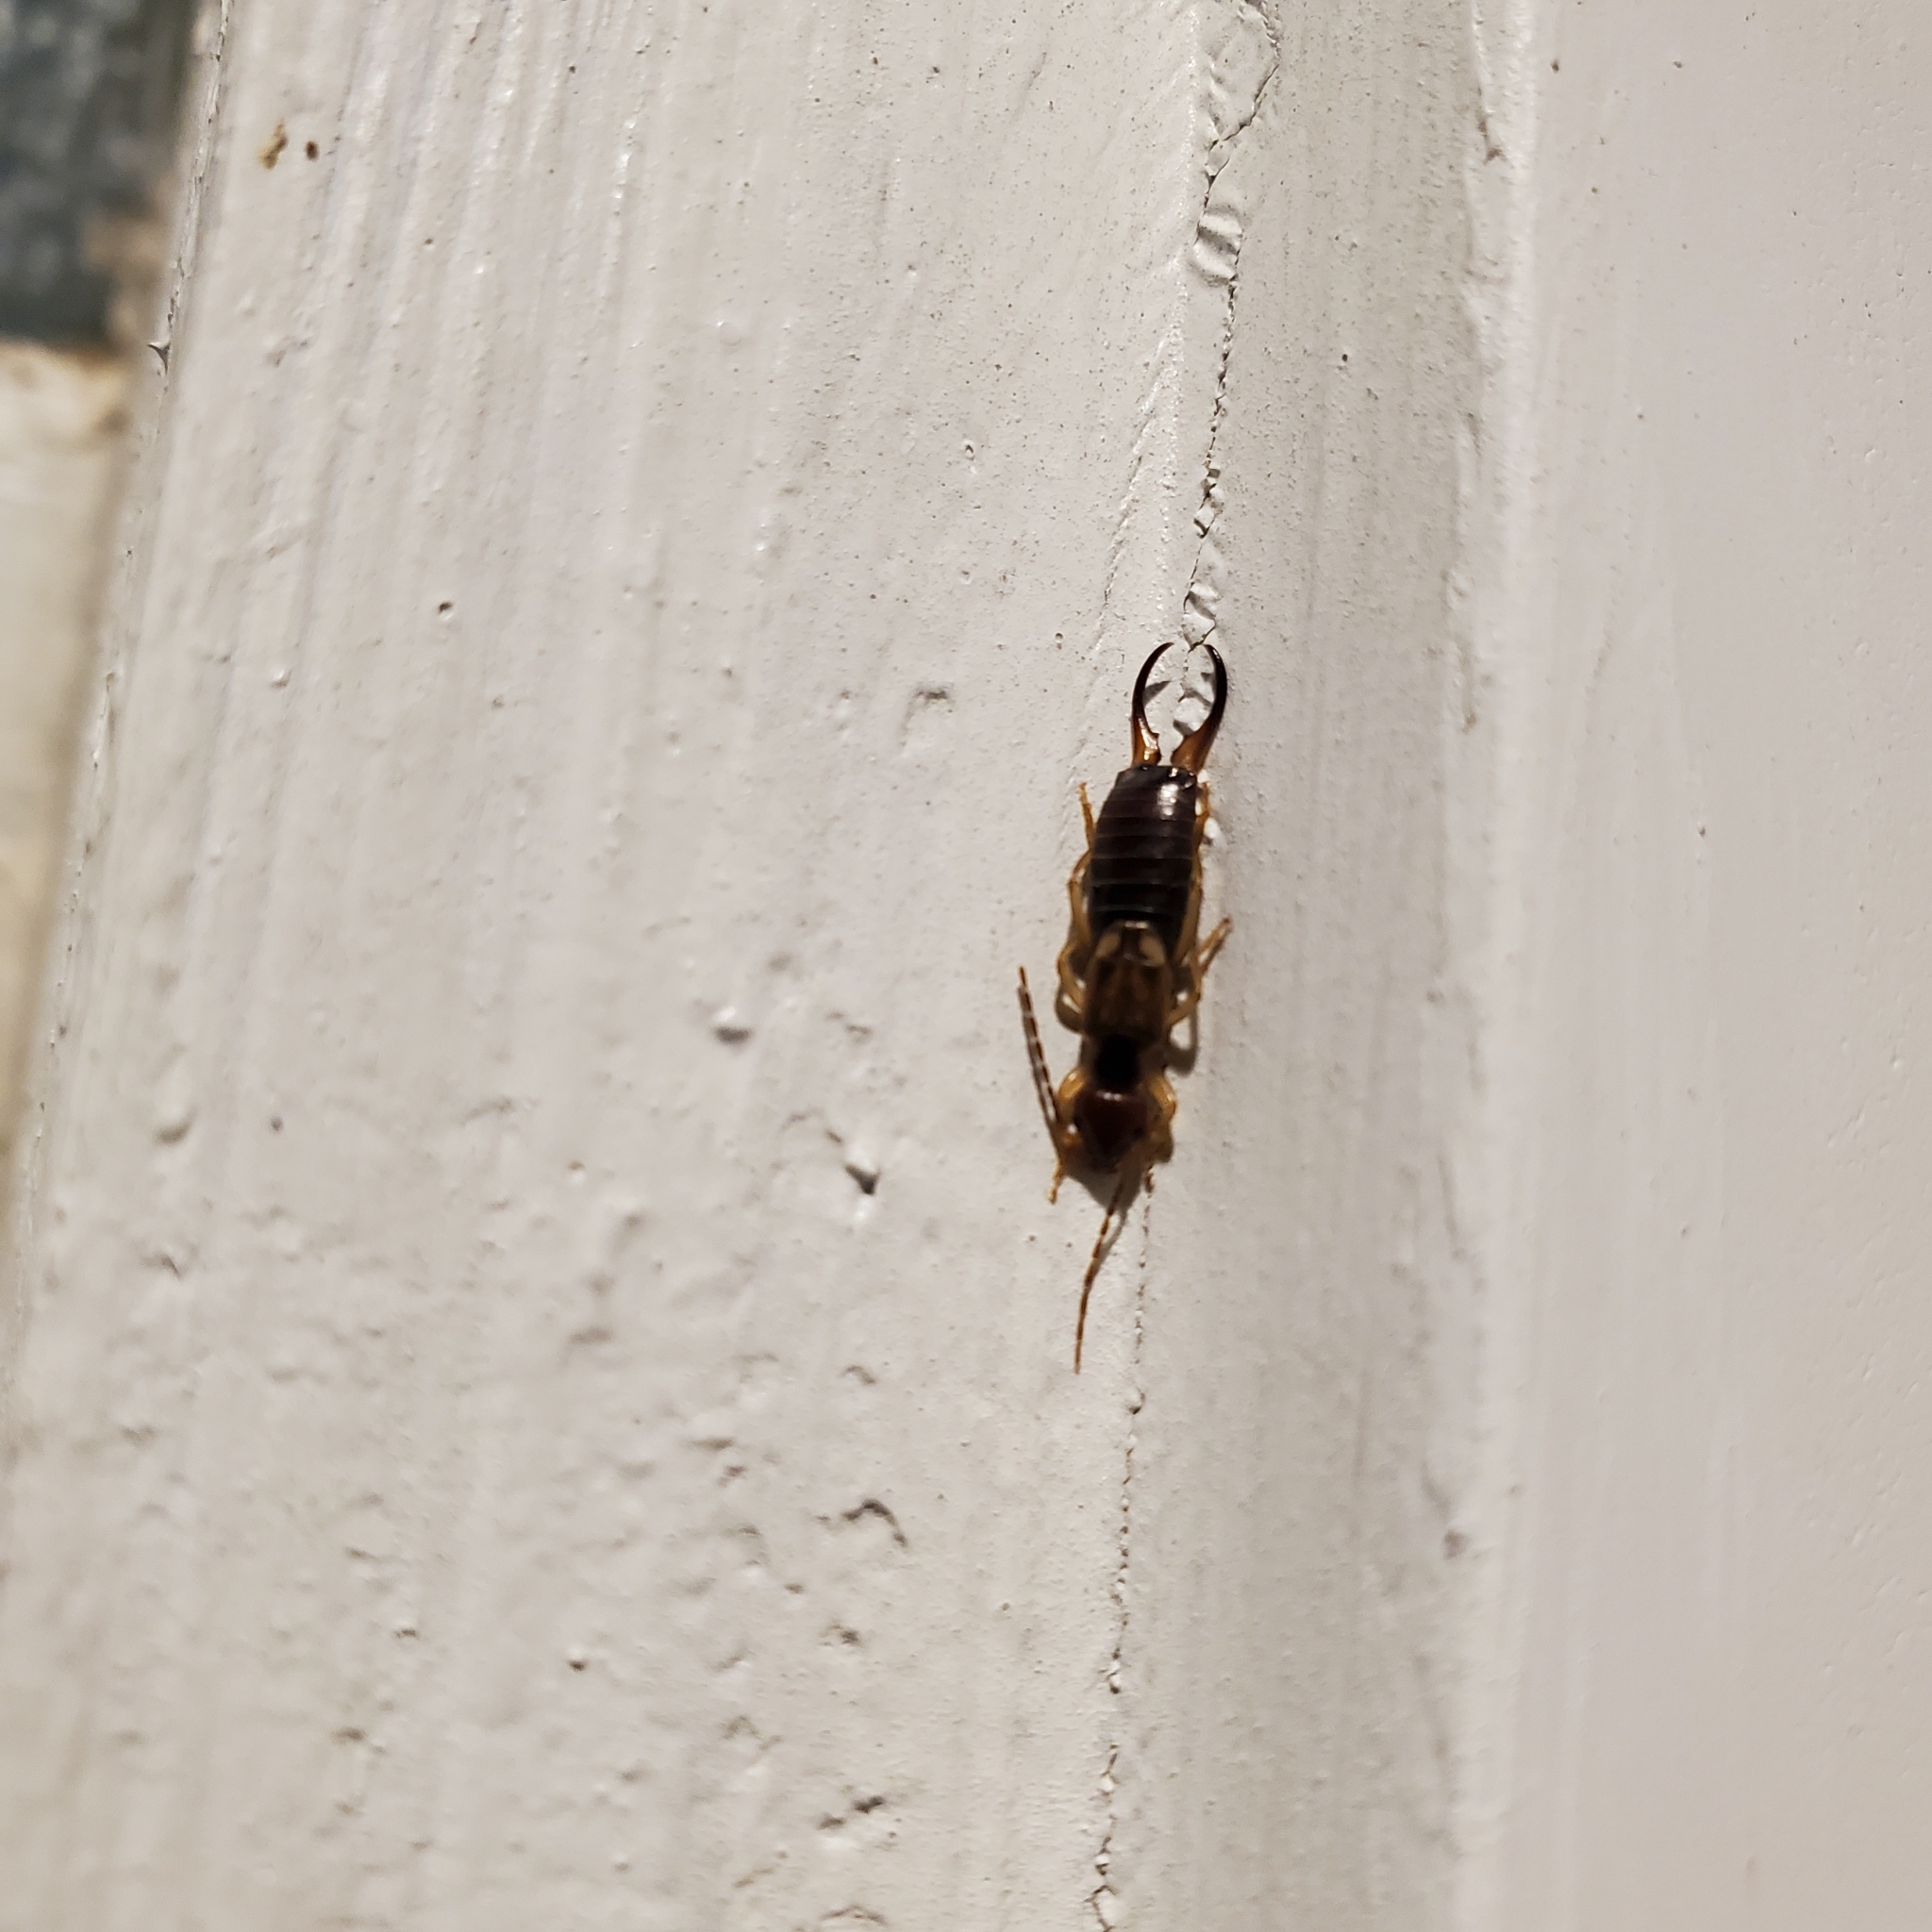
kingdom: Animalia
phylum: Arthropoda
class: Insecta
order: Dermaptera
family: Forficulidae
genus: Forficula
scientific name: Forficula
